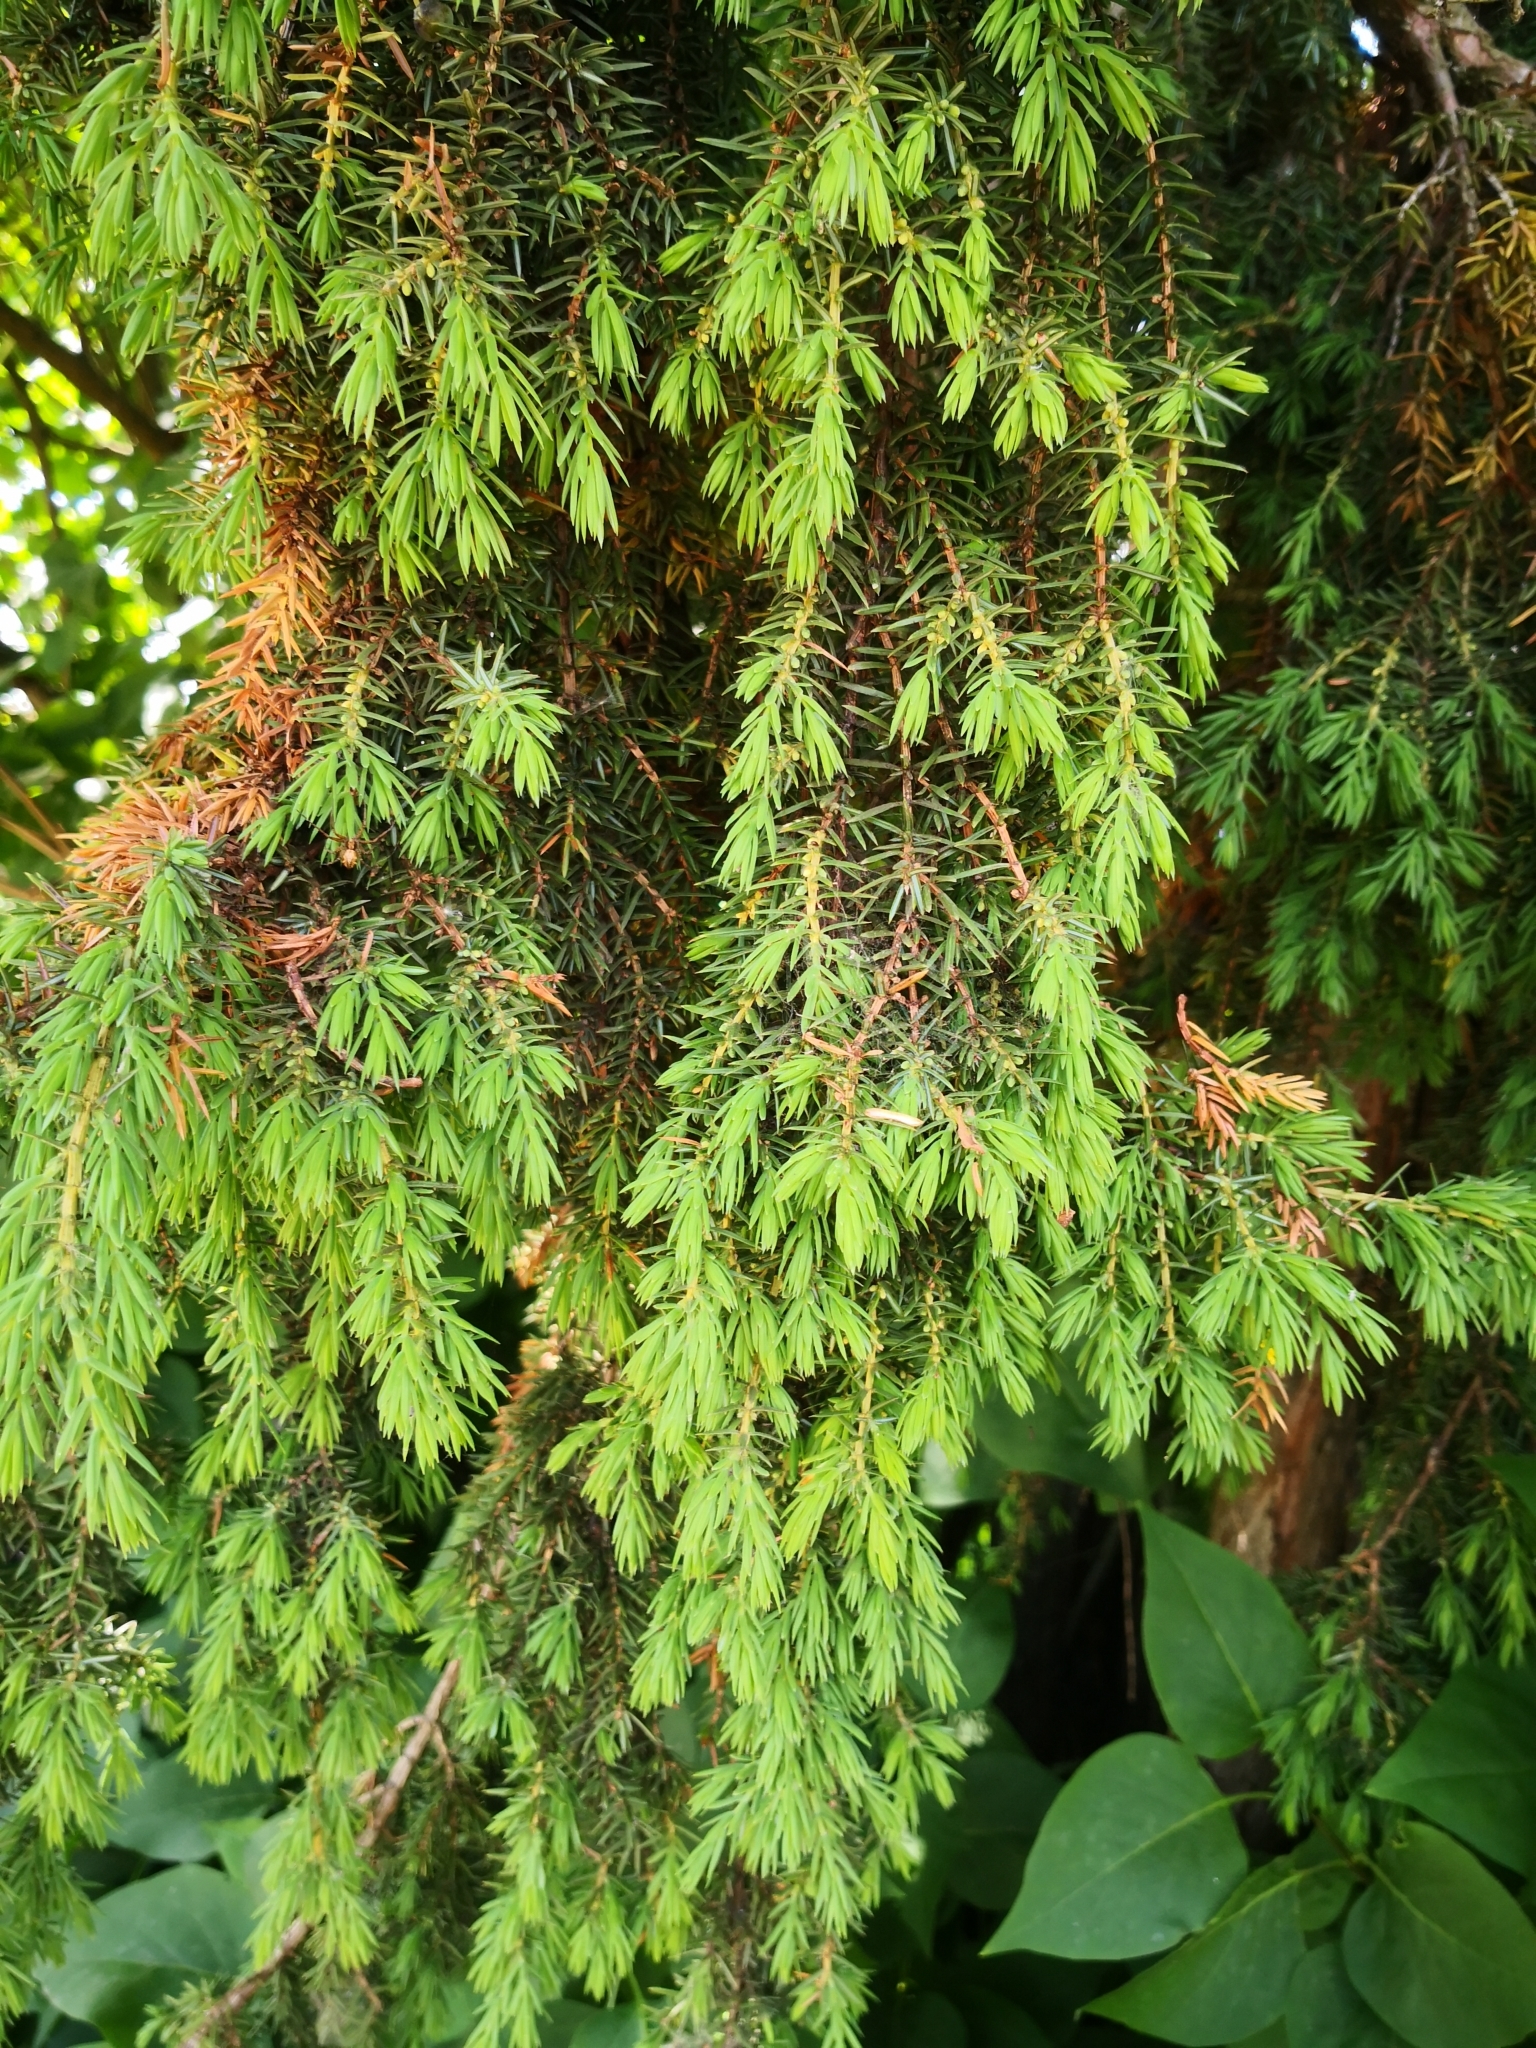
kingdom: Plantae
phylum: Tracheophyta
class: Pinopsida
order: Pinales
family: Cupressaceae
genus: Juniperus
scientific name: Juniperus communis
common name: Common juniper
